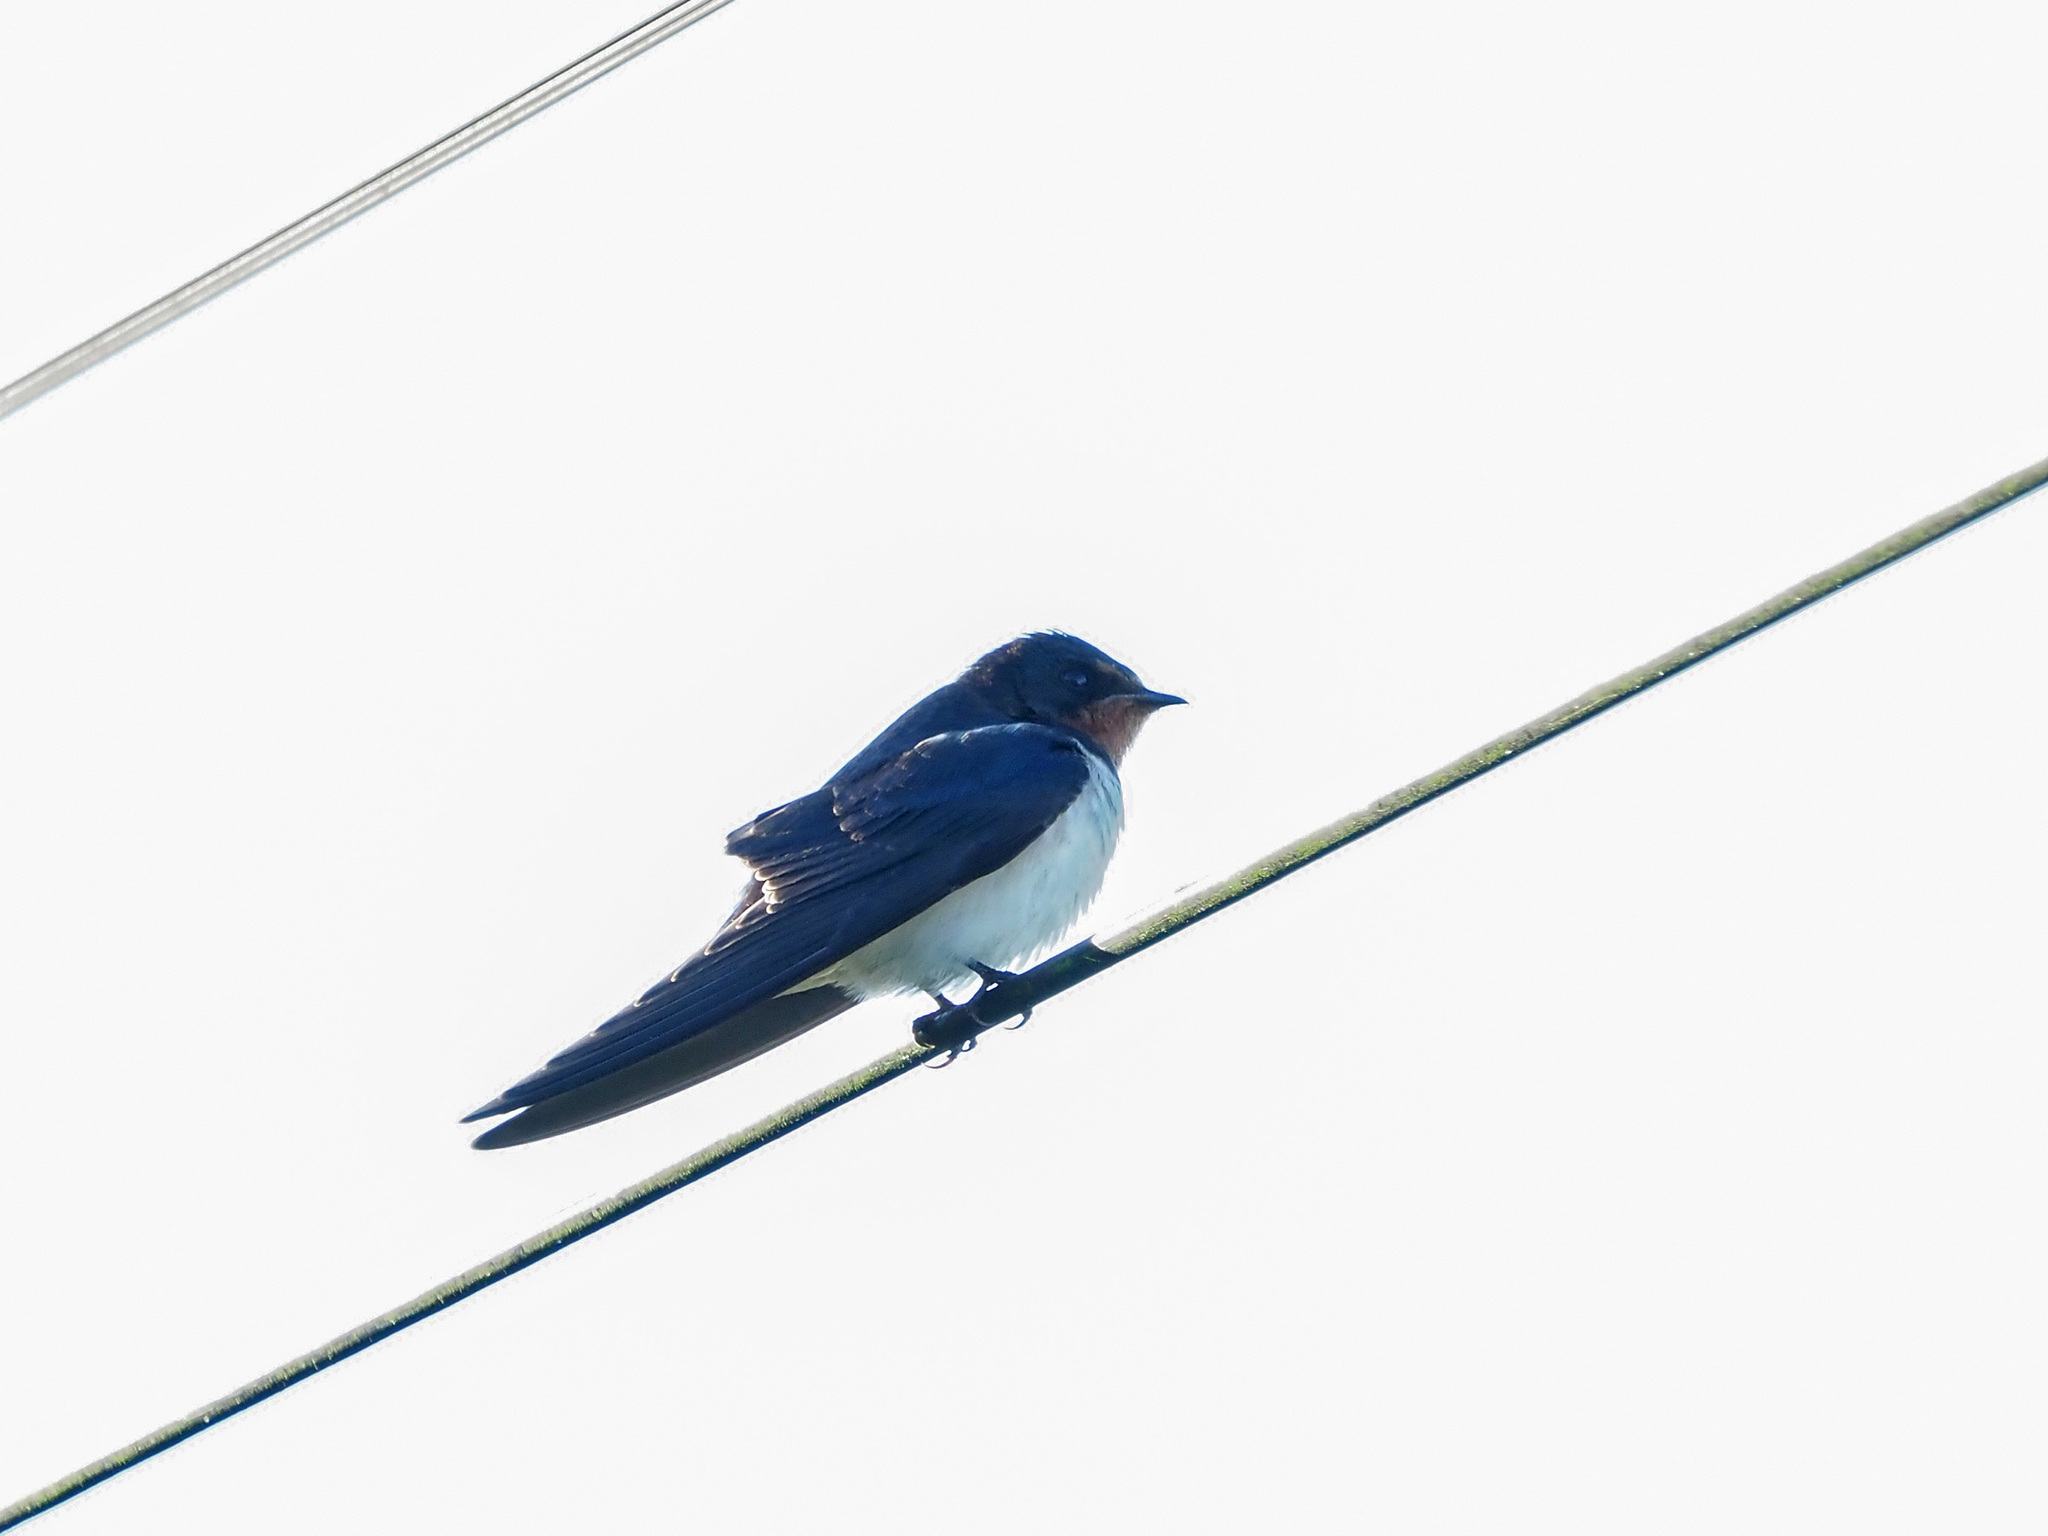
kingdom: Animalia
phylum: Chordata
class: Aves
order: Passeriformes
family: Hirundinidae
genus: Hirundo
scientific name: Hirundo rustica
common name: Barn swallow
